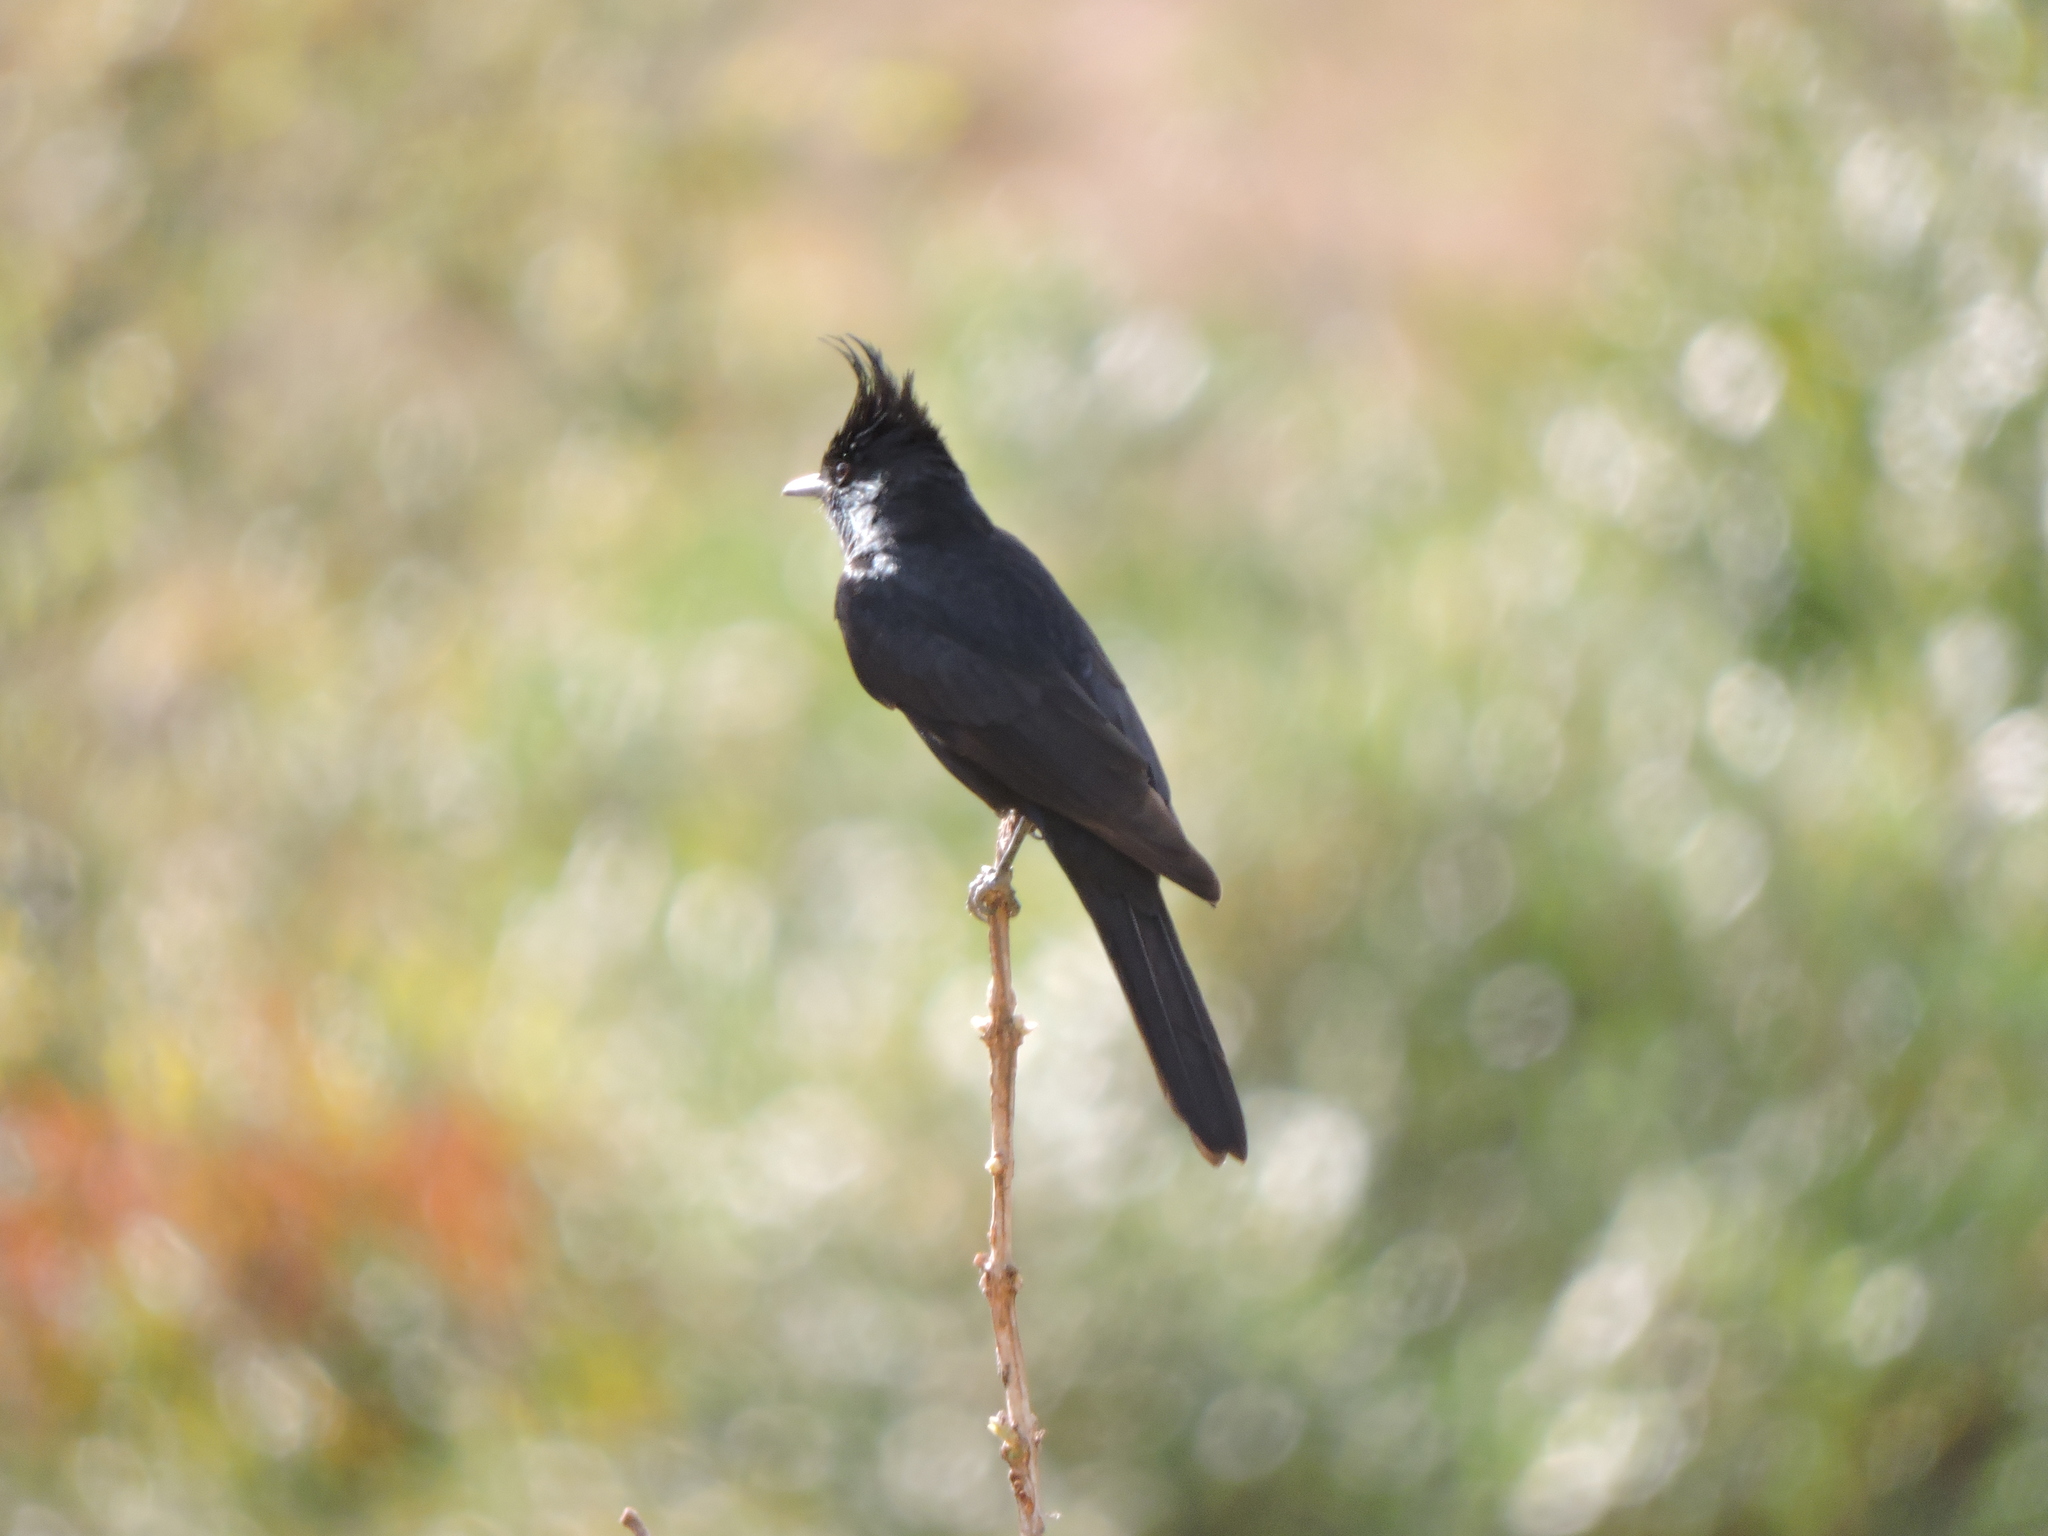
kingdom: Animalia
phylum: Chordata
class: Aves
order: Passeriformes
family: Tyrannidae
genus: Knipolegus
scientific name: Knipolegus lophotes
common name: Crested black tyrant
